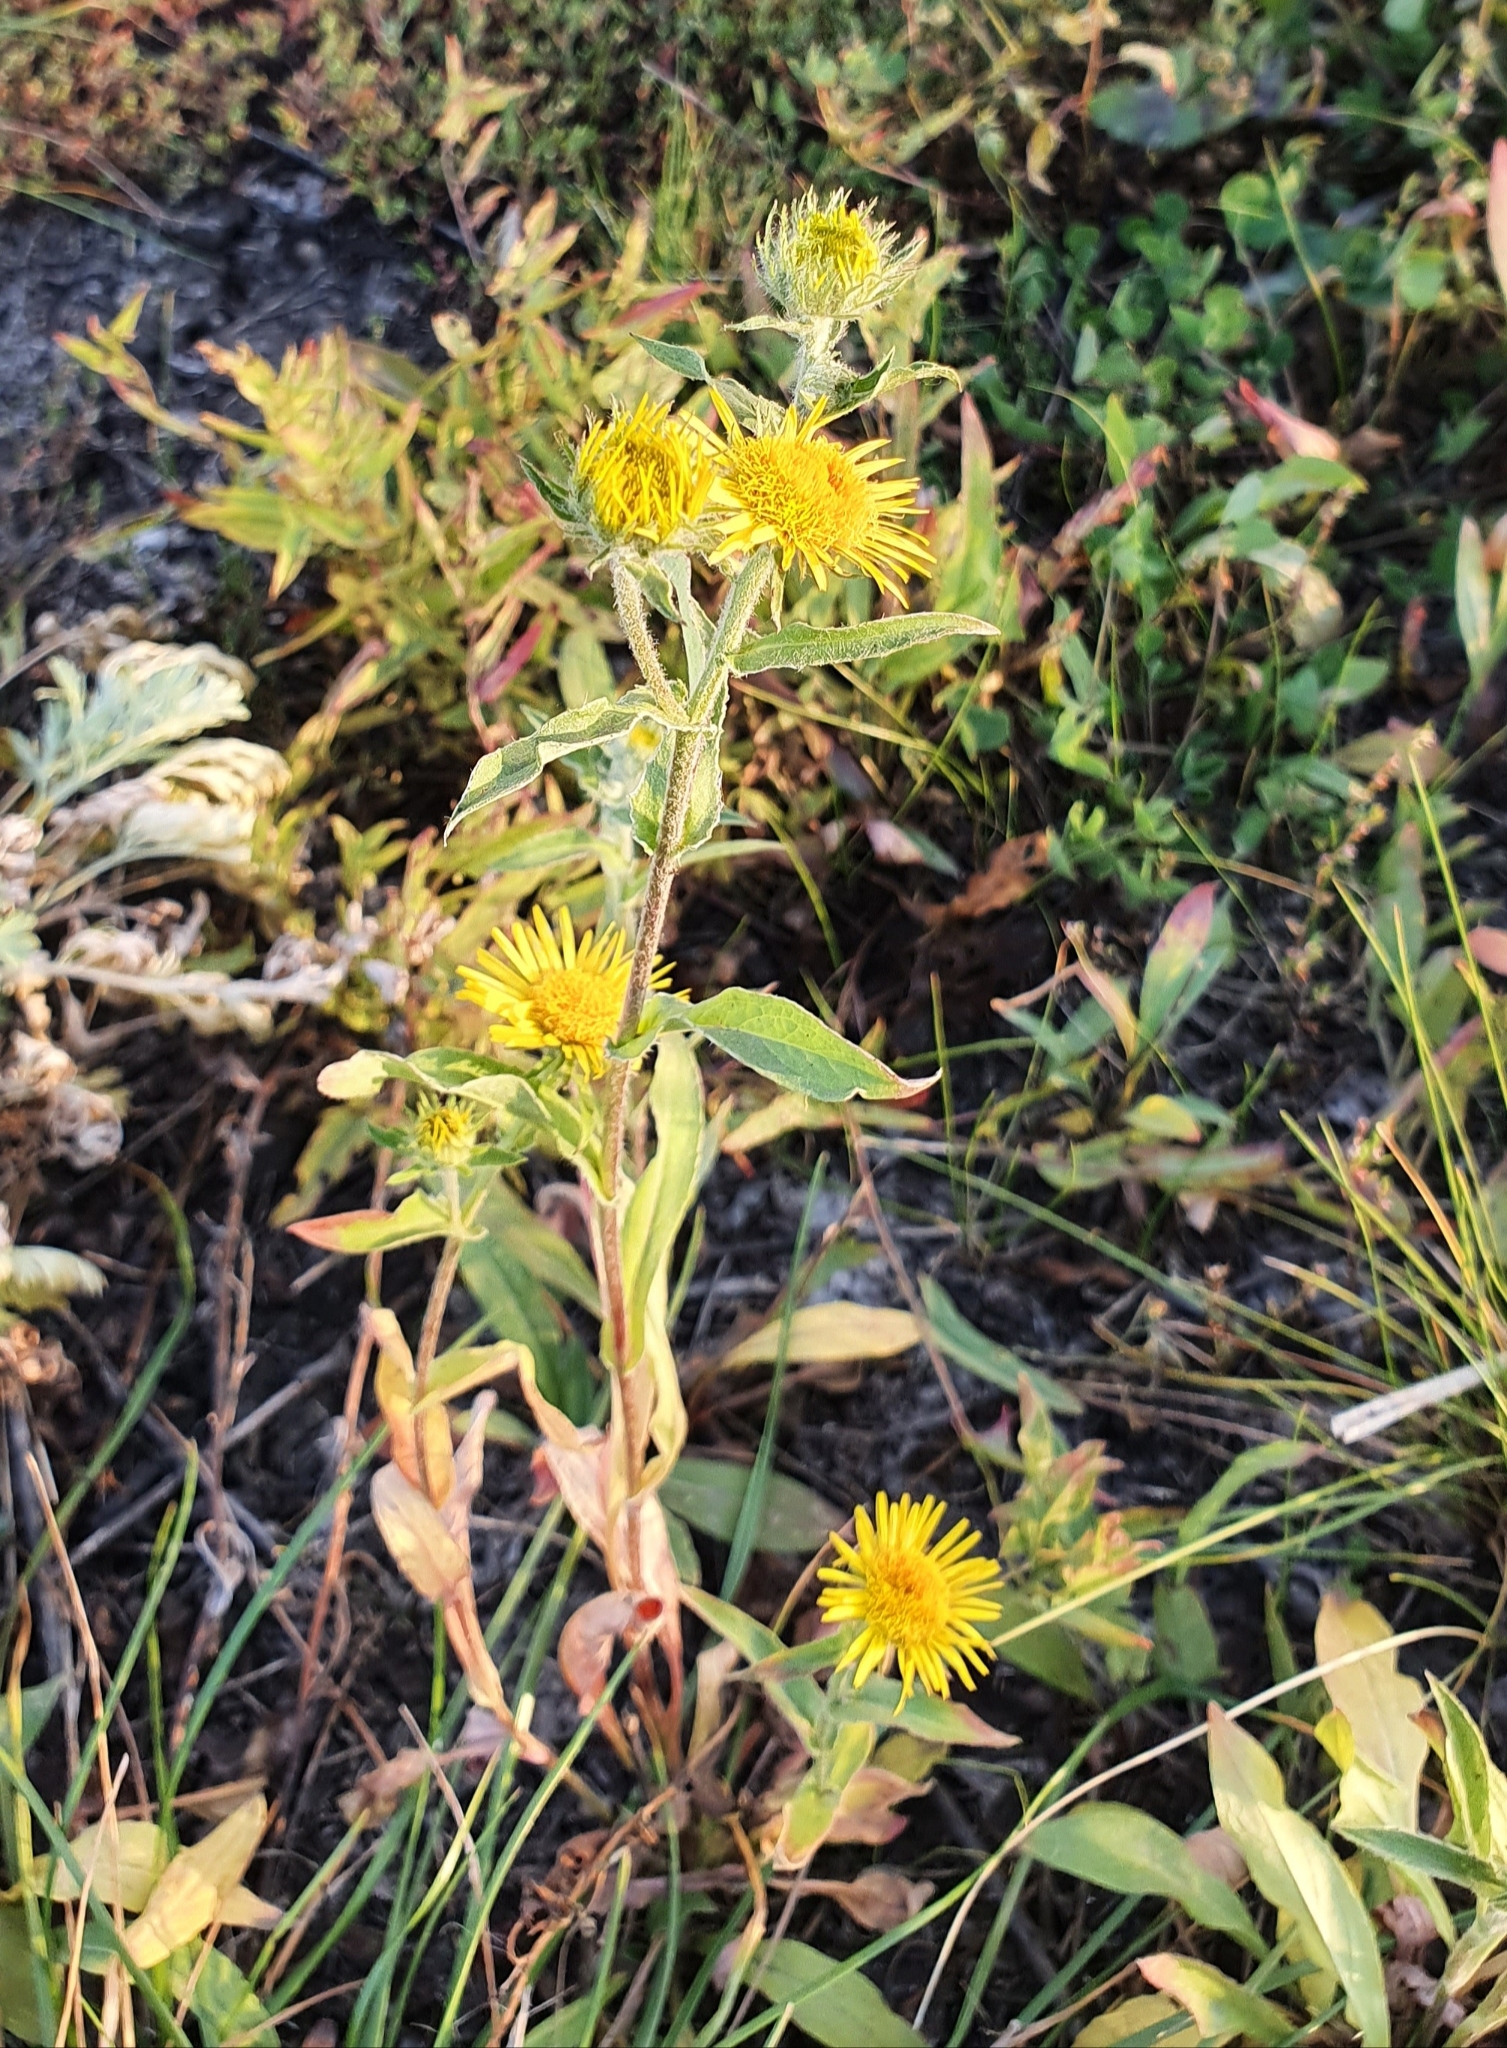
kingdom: Plantae
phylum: Tracheophyta
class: Magnoliopsida
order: Asterales
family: Asteraceae
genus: Pentanema
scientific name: Pentanema britannicum
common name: British elecampane
